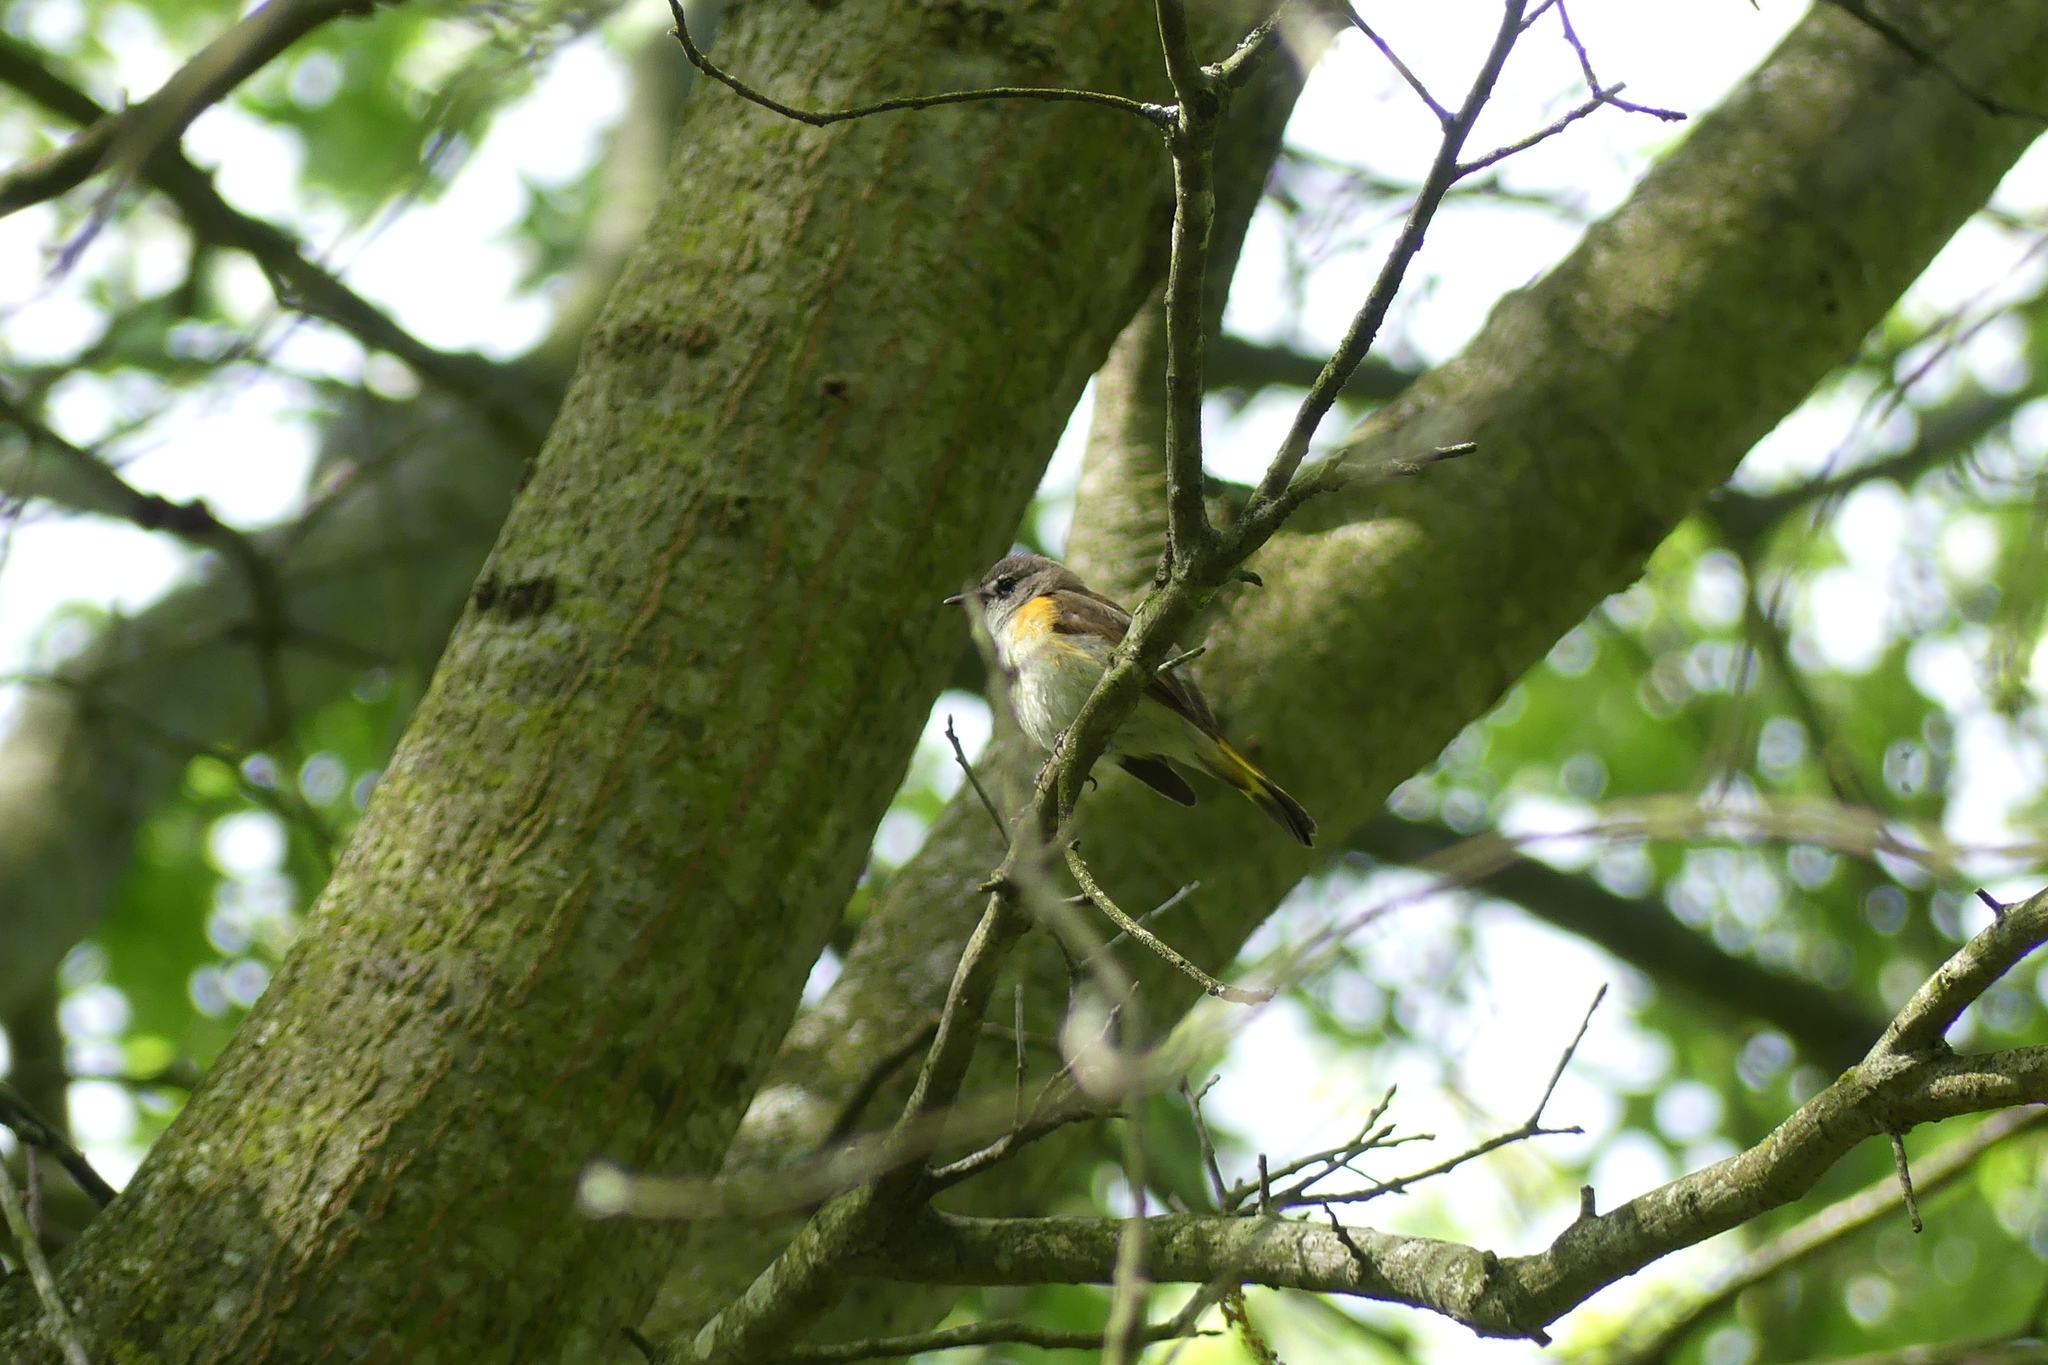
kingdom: Animalia
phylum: Chordata
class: Aves
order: Passeriformes
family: Parulidae
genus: Setophaga
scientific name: Setophaga ruticilla
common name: American redstart
